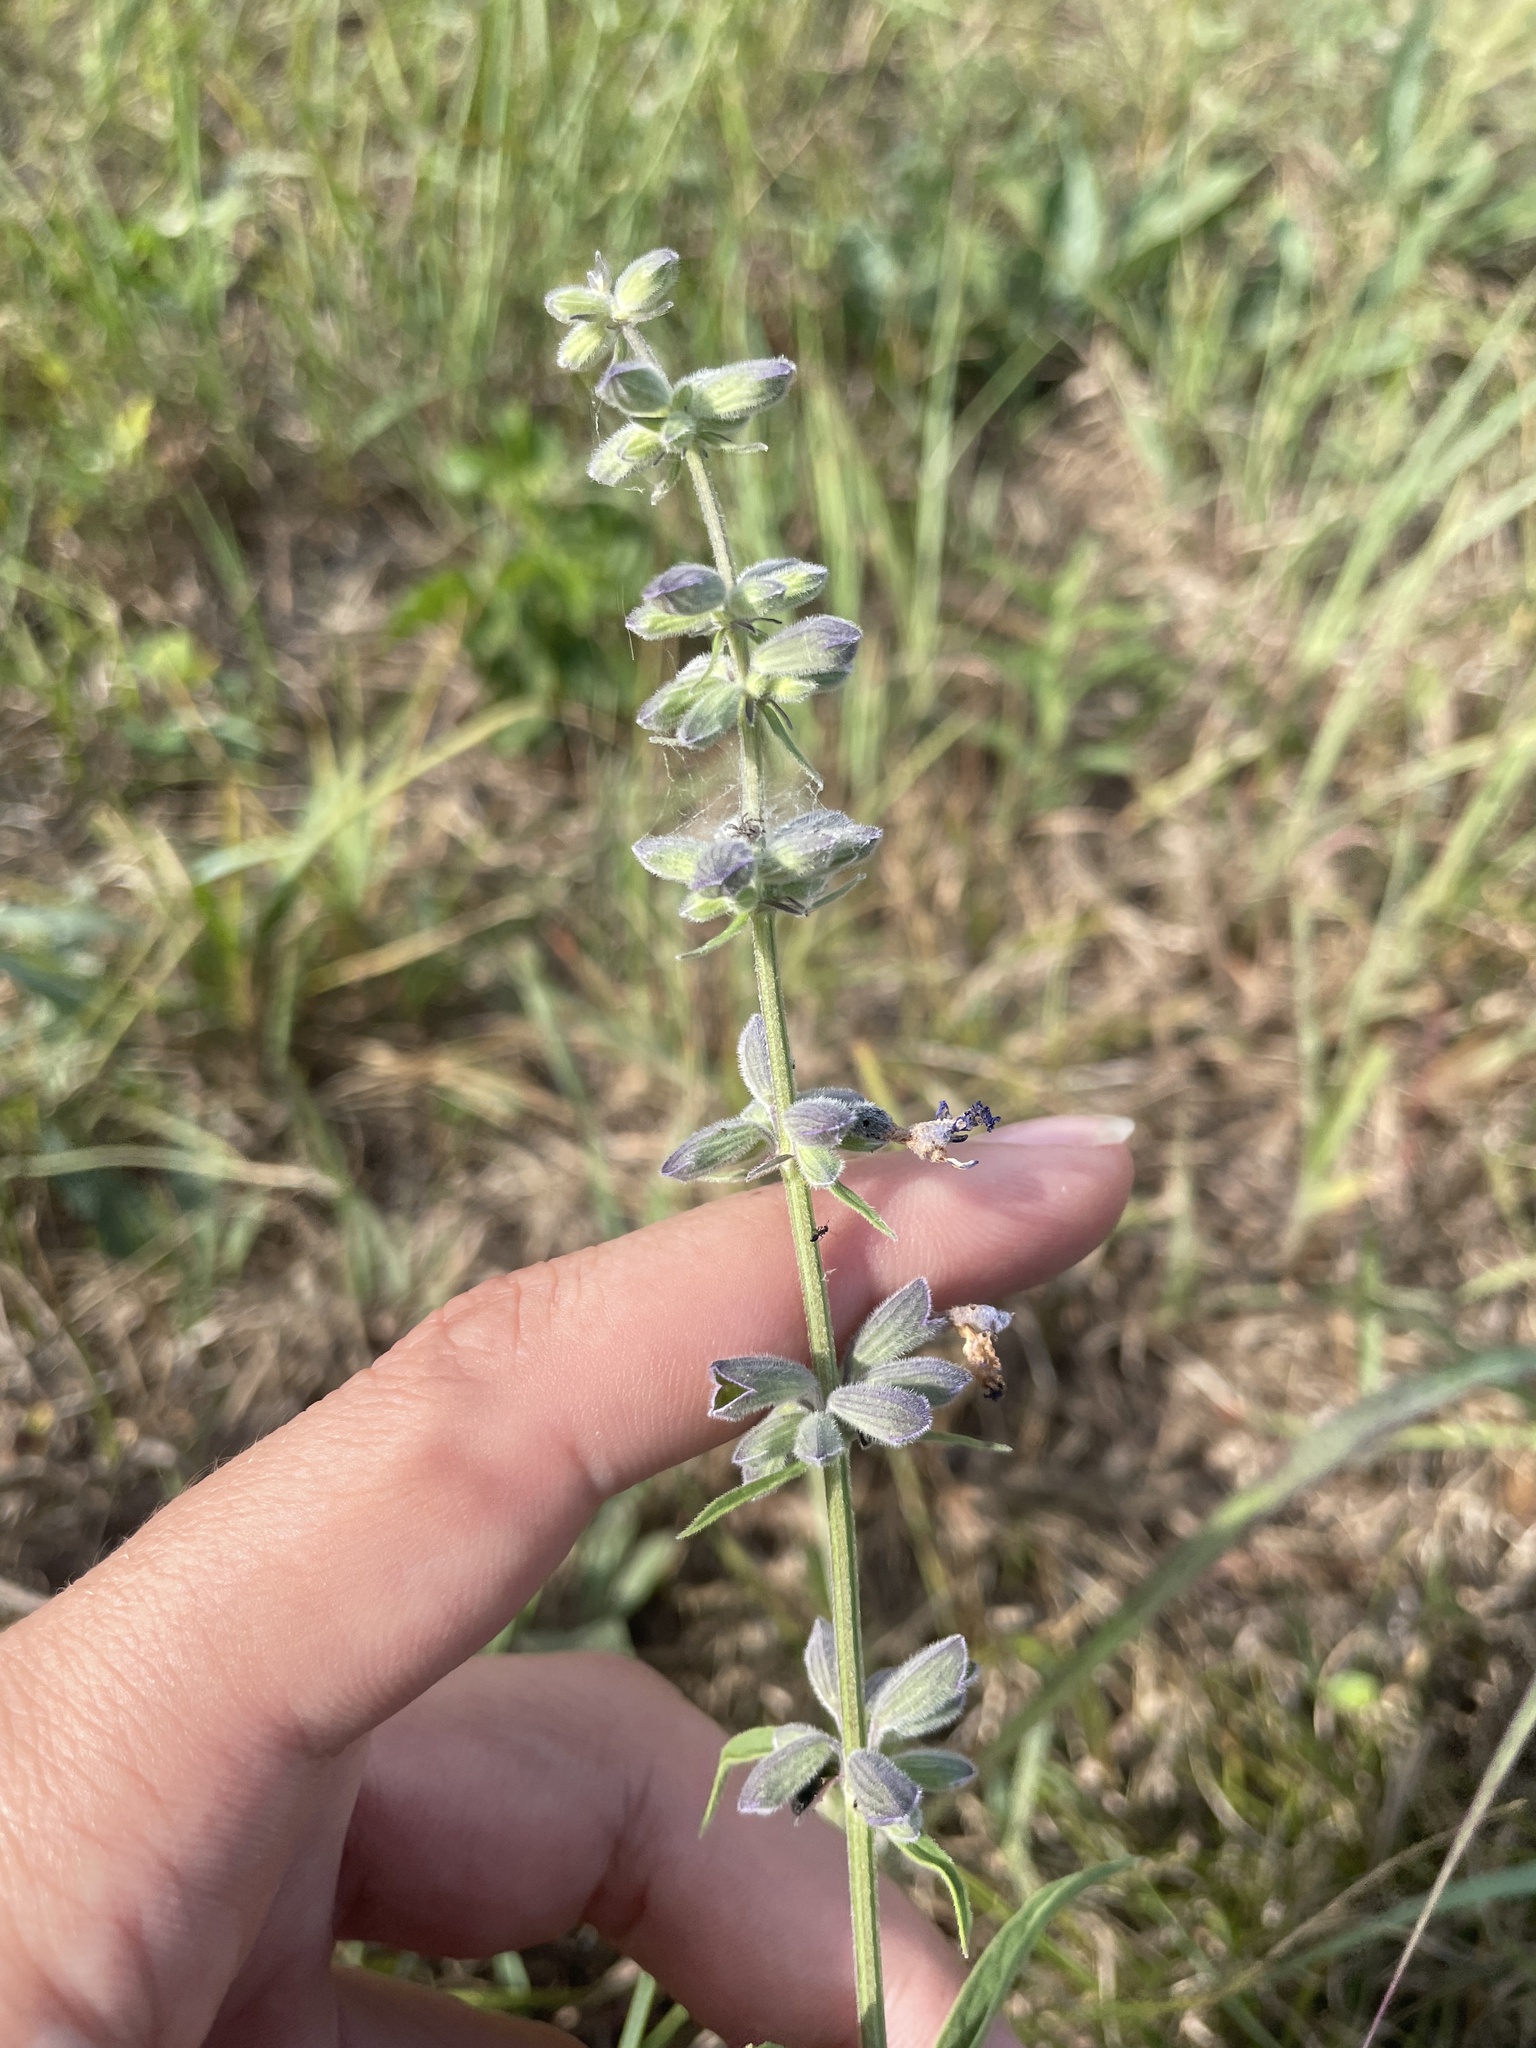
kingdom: Plantae
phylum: Tracheophyta
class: Magnoliopsida
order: Lamiales
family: Lamiaceae
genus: Salvia
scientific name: Salvia azurea
